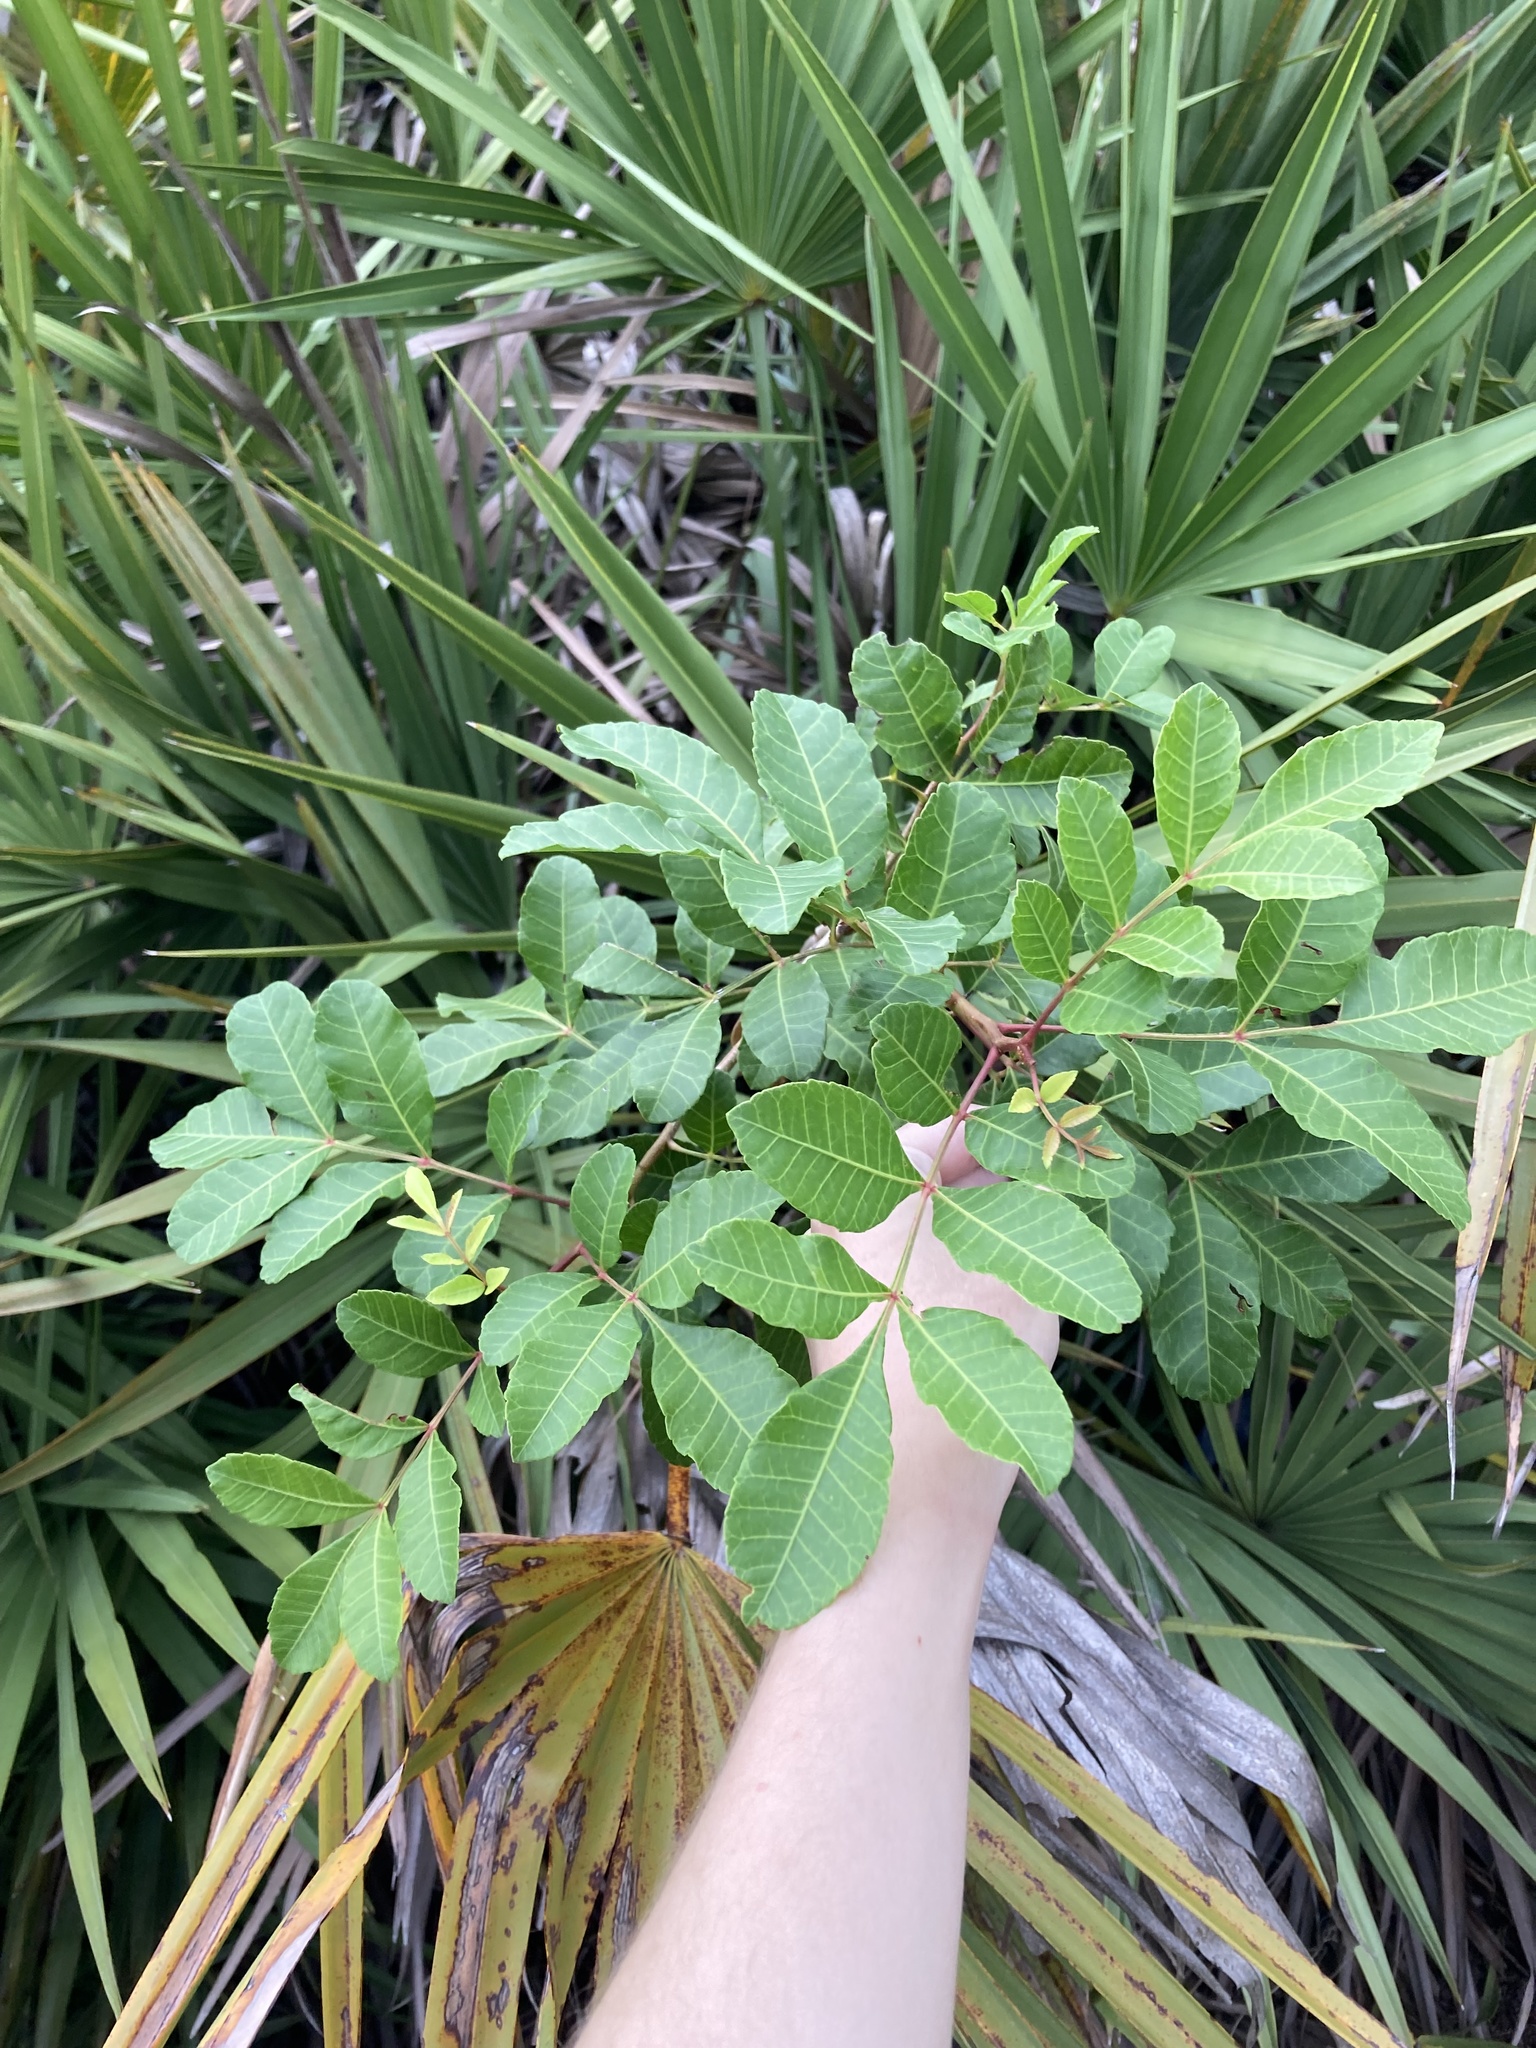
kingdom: Plantae
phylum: Tracheophyta
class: Magnoliopsida
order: Sapindales
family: Anacardiaceae
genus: Schinus
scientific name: Schinus terebinthifolia
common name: Brazilian peppertree
